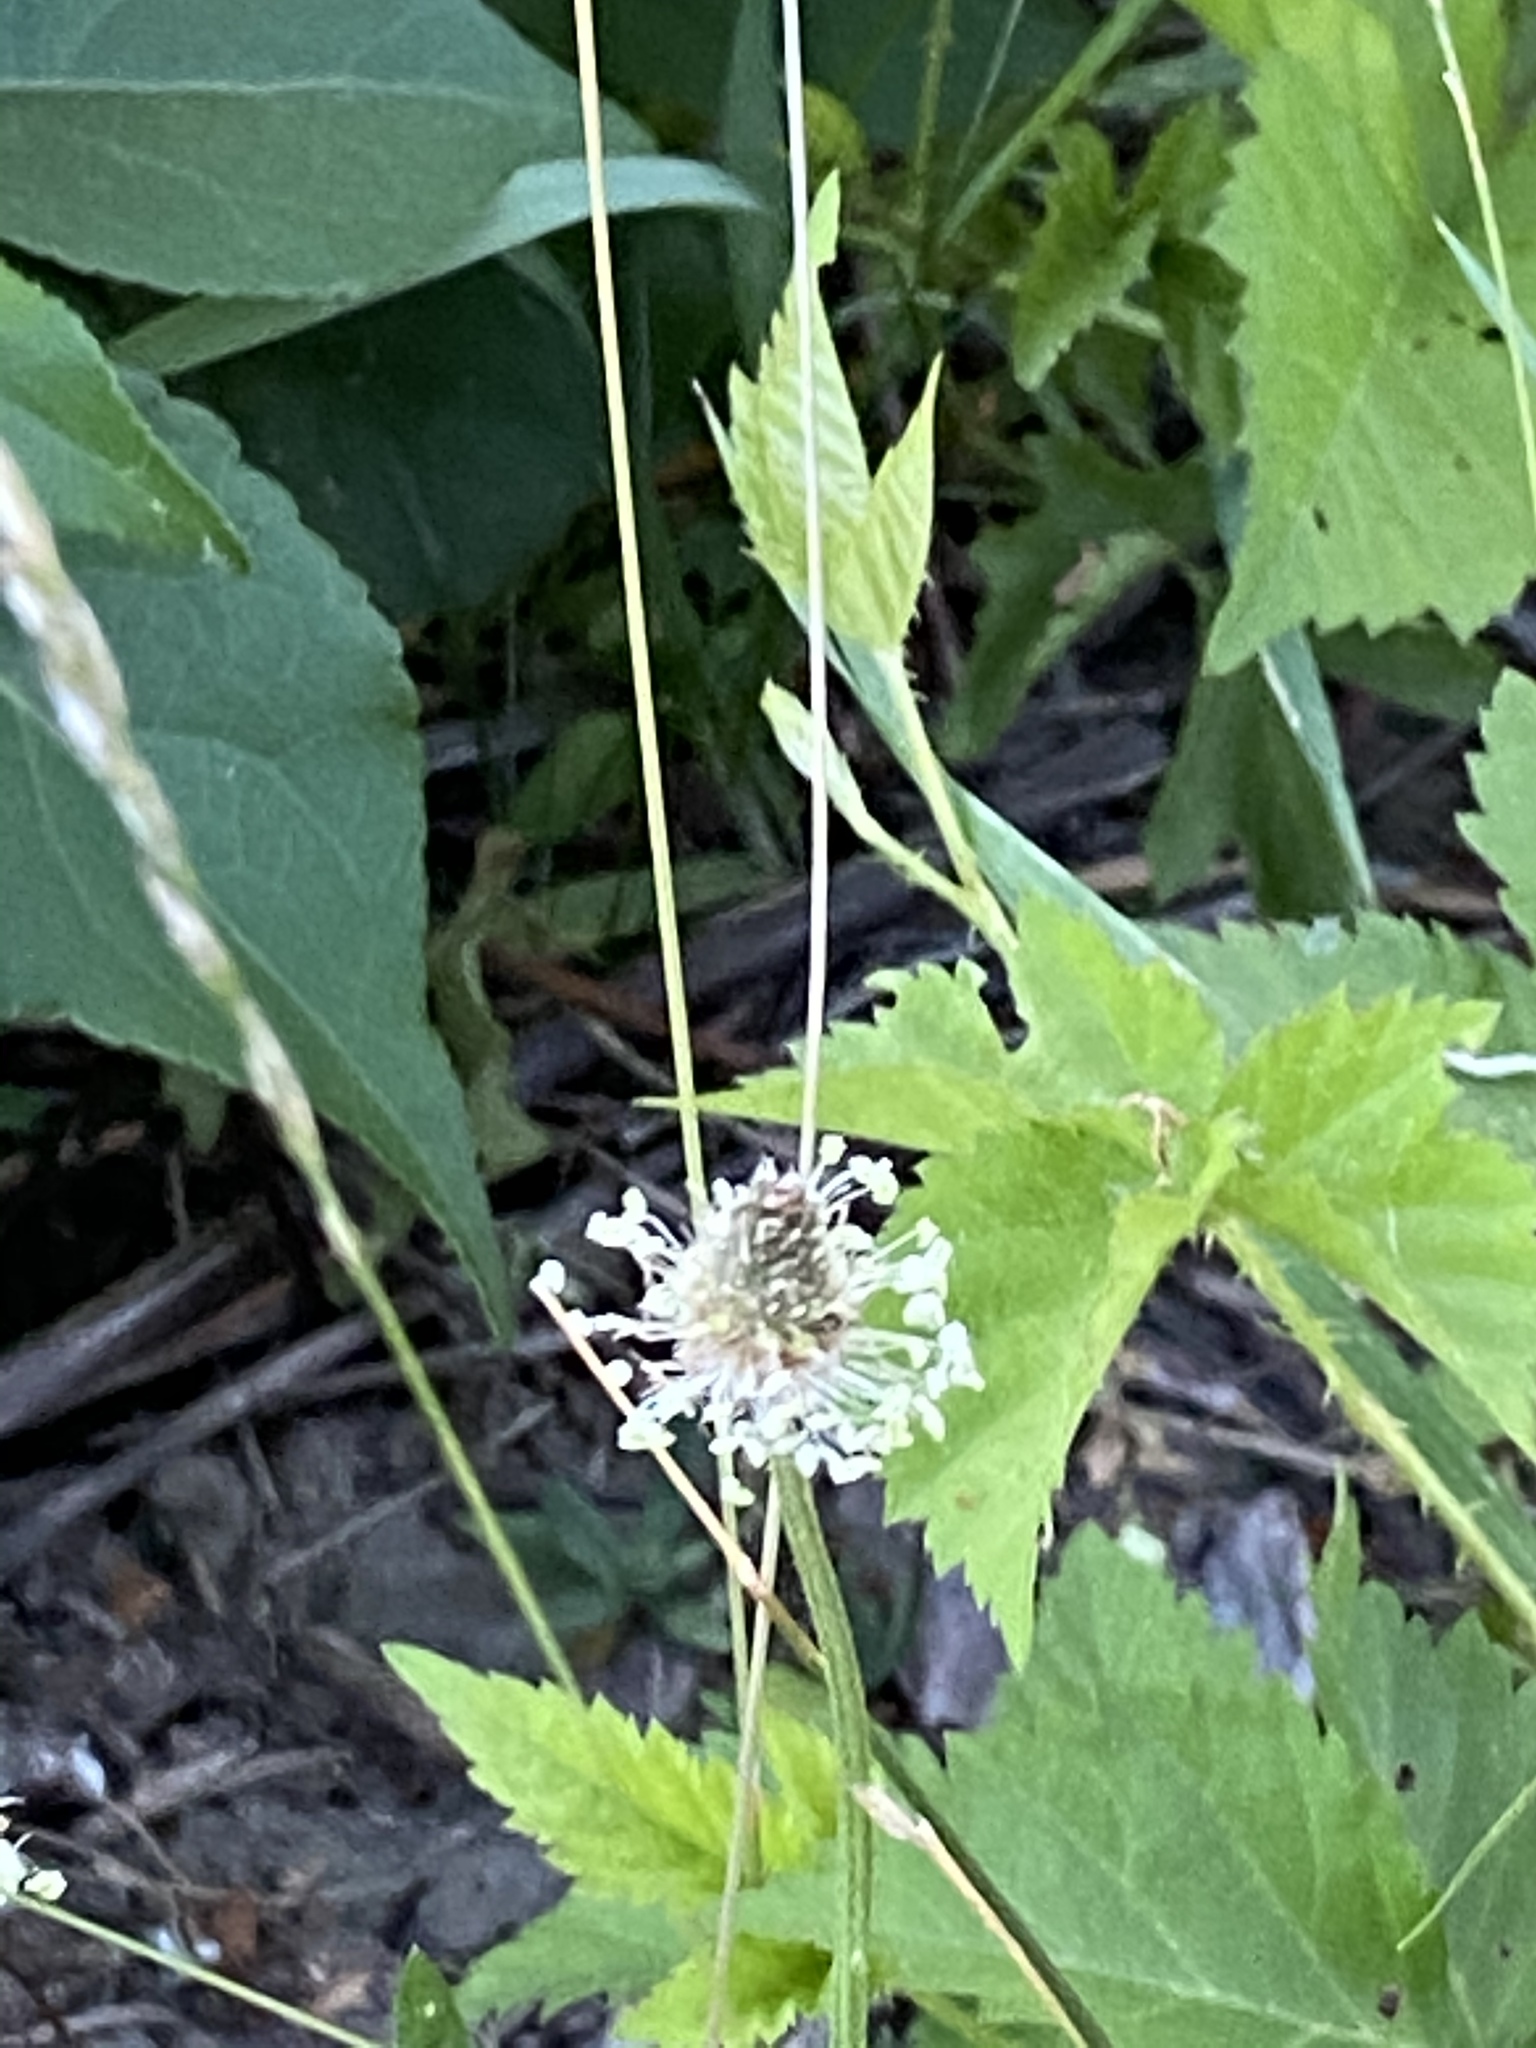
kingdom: Plantae
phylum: Tracheophyta
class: Magnoliopsida
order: Lamiales
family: Plantaginaceae
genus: Plantago
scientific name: Plantago lanceolata
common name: Ribwort plantain
